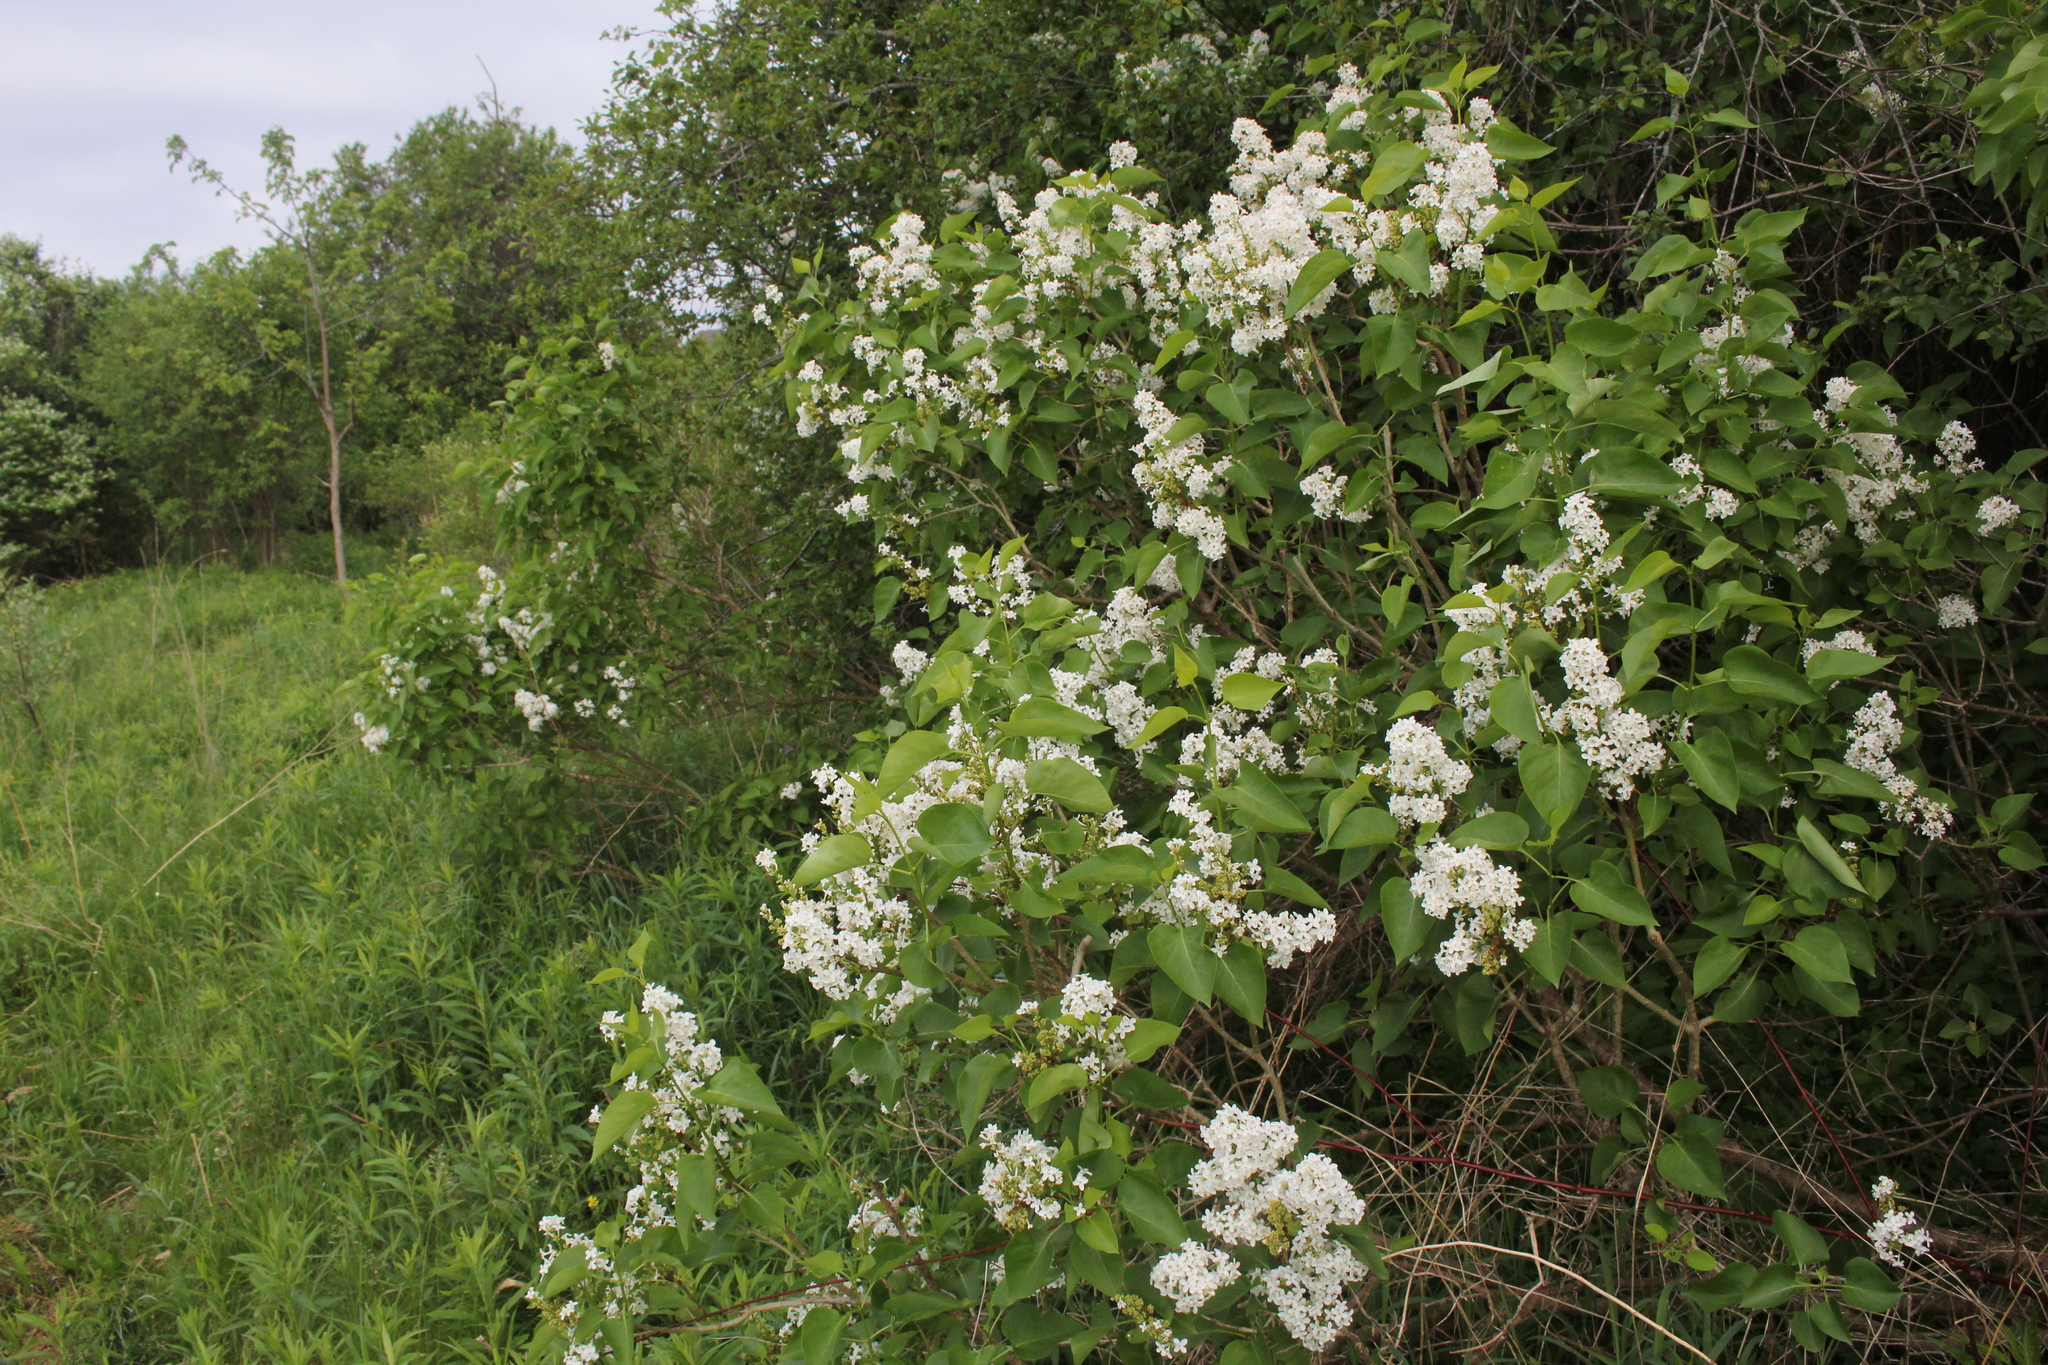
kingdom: Plantae
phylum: Tracheophyta
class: Magnoliopsida
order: Lamiales
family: Oleaceae
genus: Syringa
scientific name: Syringa vulgaris
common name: Common lilac
